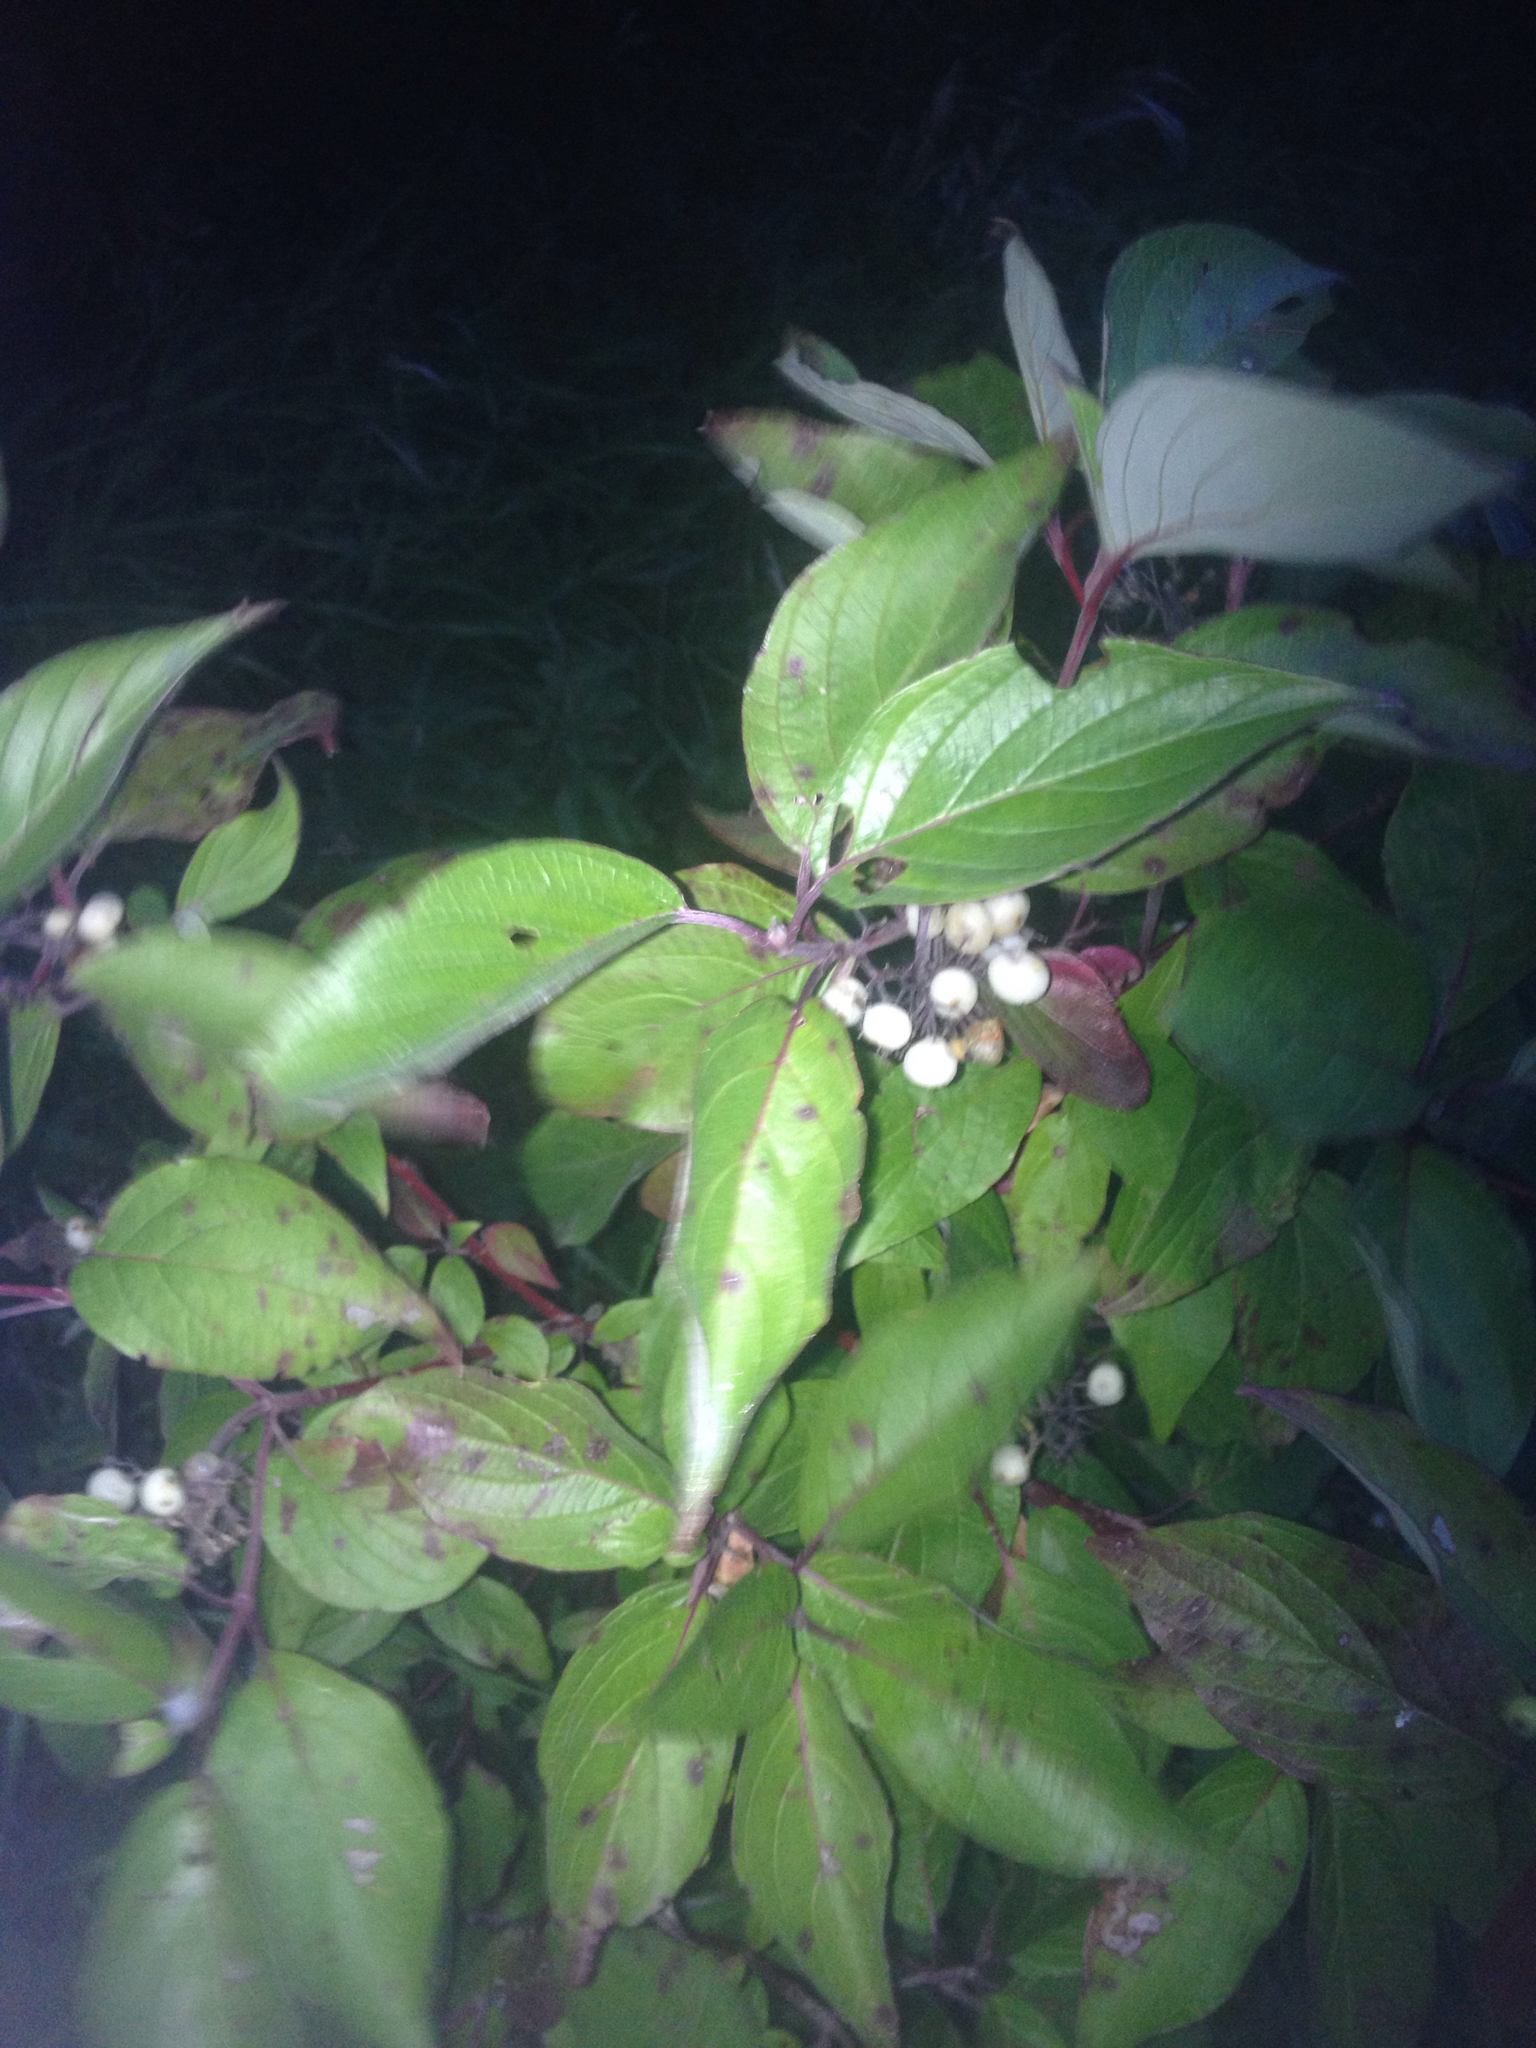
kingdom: Plantae
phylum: Tracheophyta
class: Magnoliopsida
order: Cornales
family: Cornaceae
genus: Cornus
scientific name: Cornus sericea
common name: Red-osier dogwood
